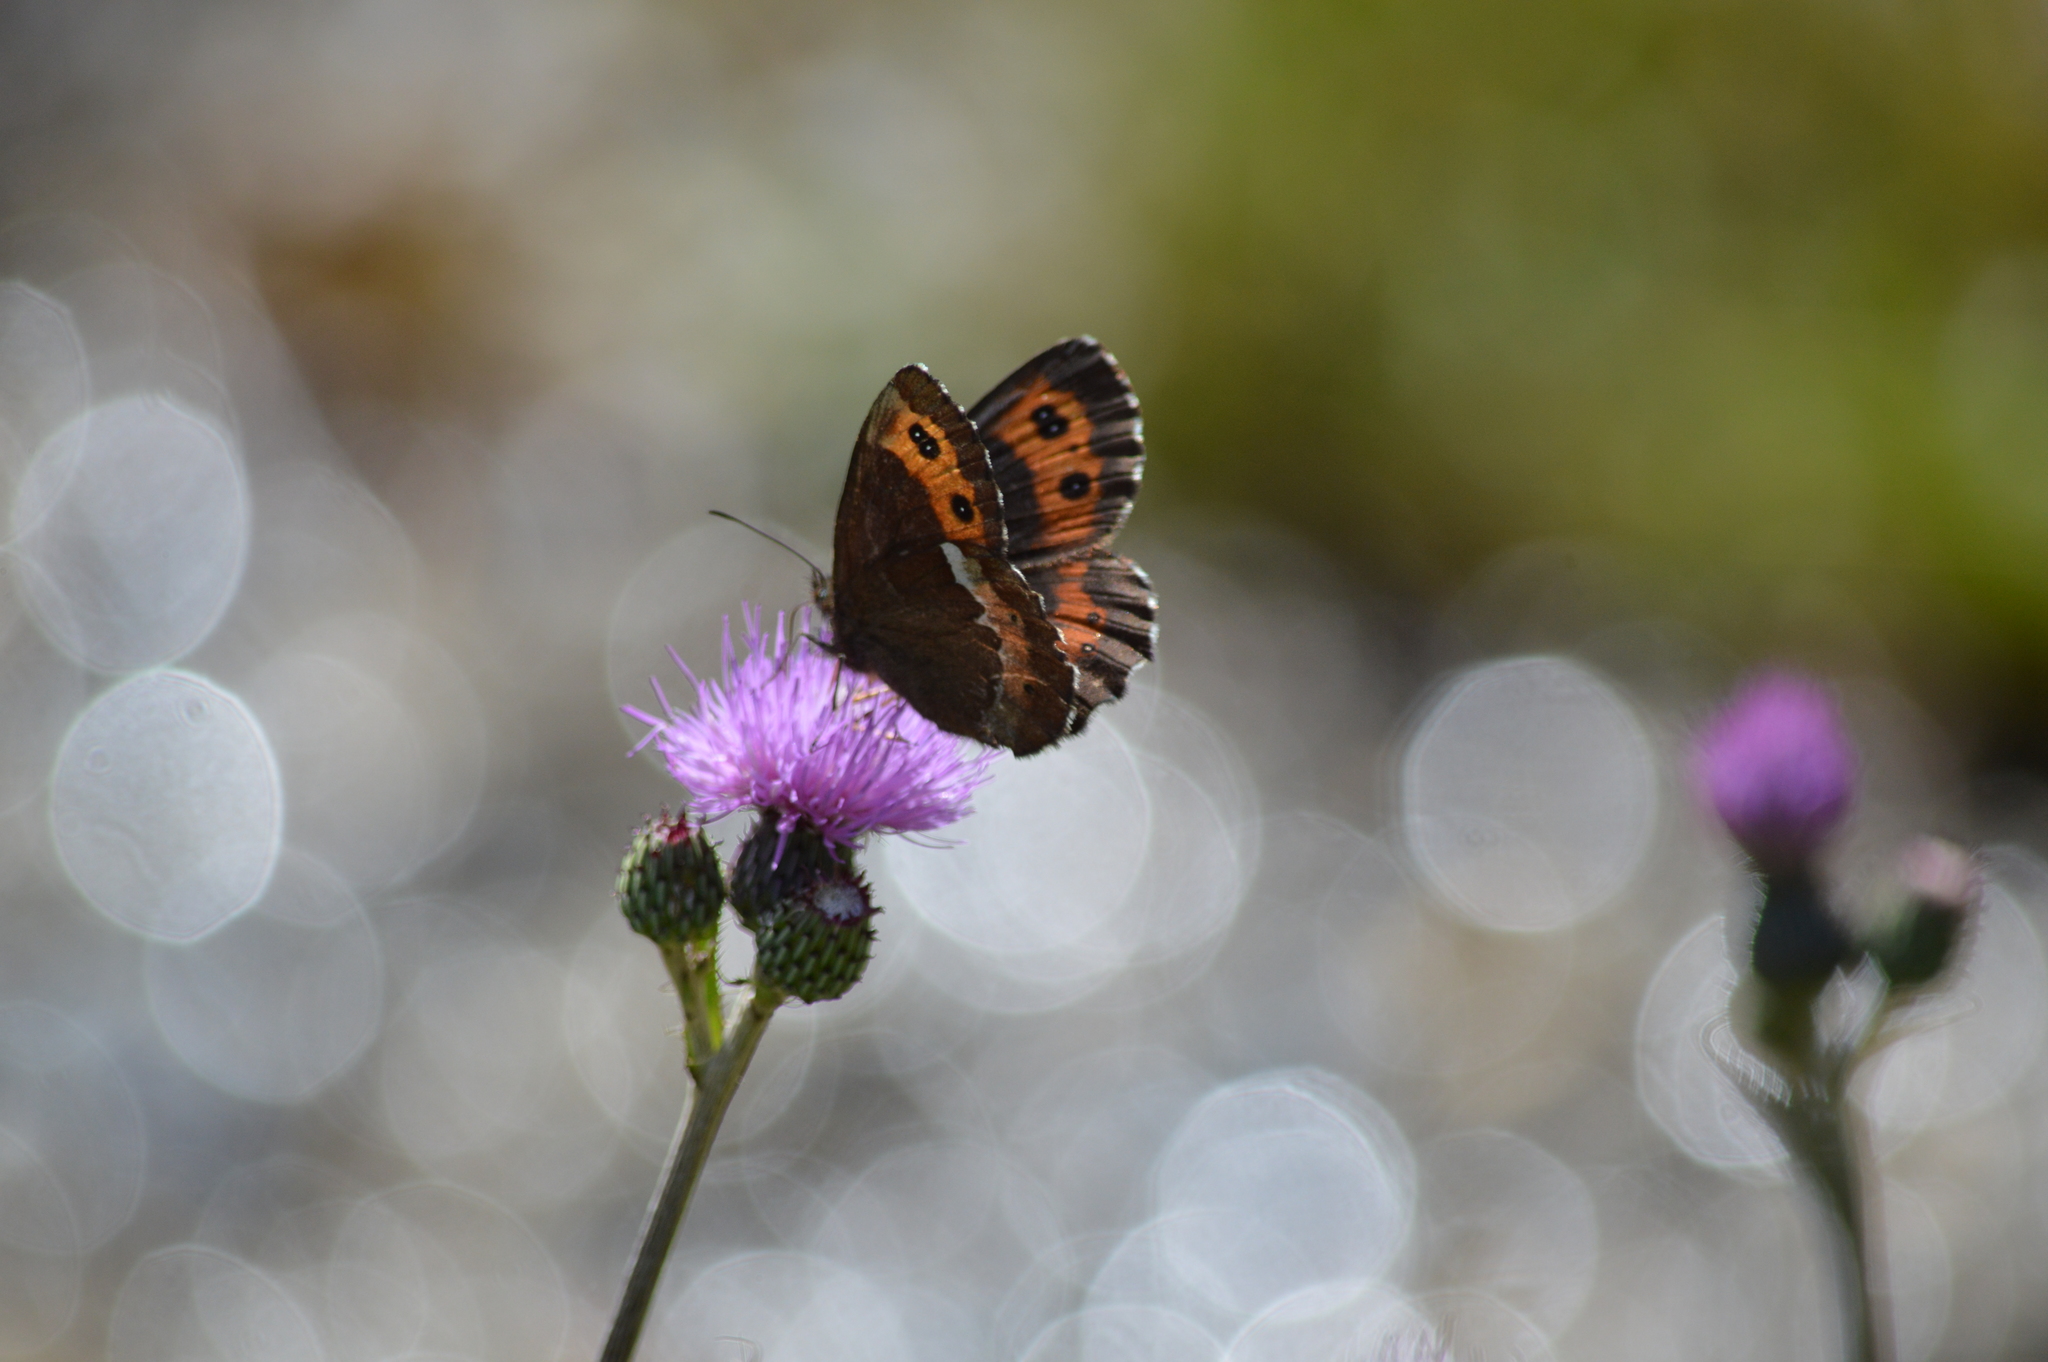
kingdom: Animalia
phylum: Arthropoda
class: Insecta
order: Lepidoptera
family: Nymphalidae
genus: Erebia
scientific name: Erebia ligea
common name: Arran brown
